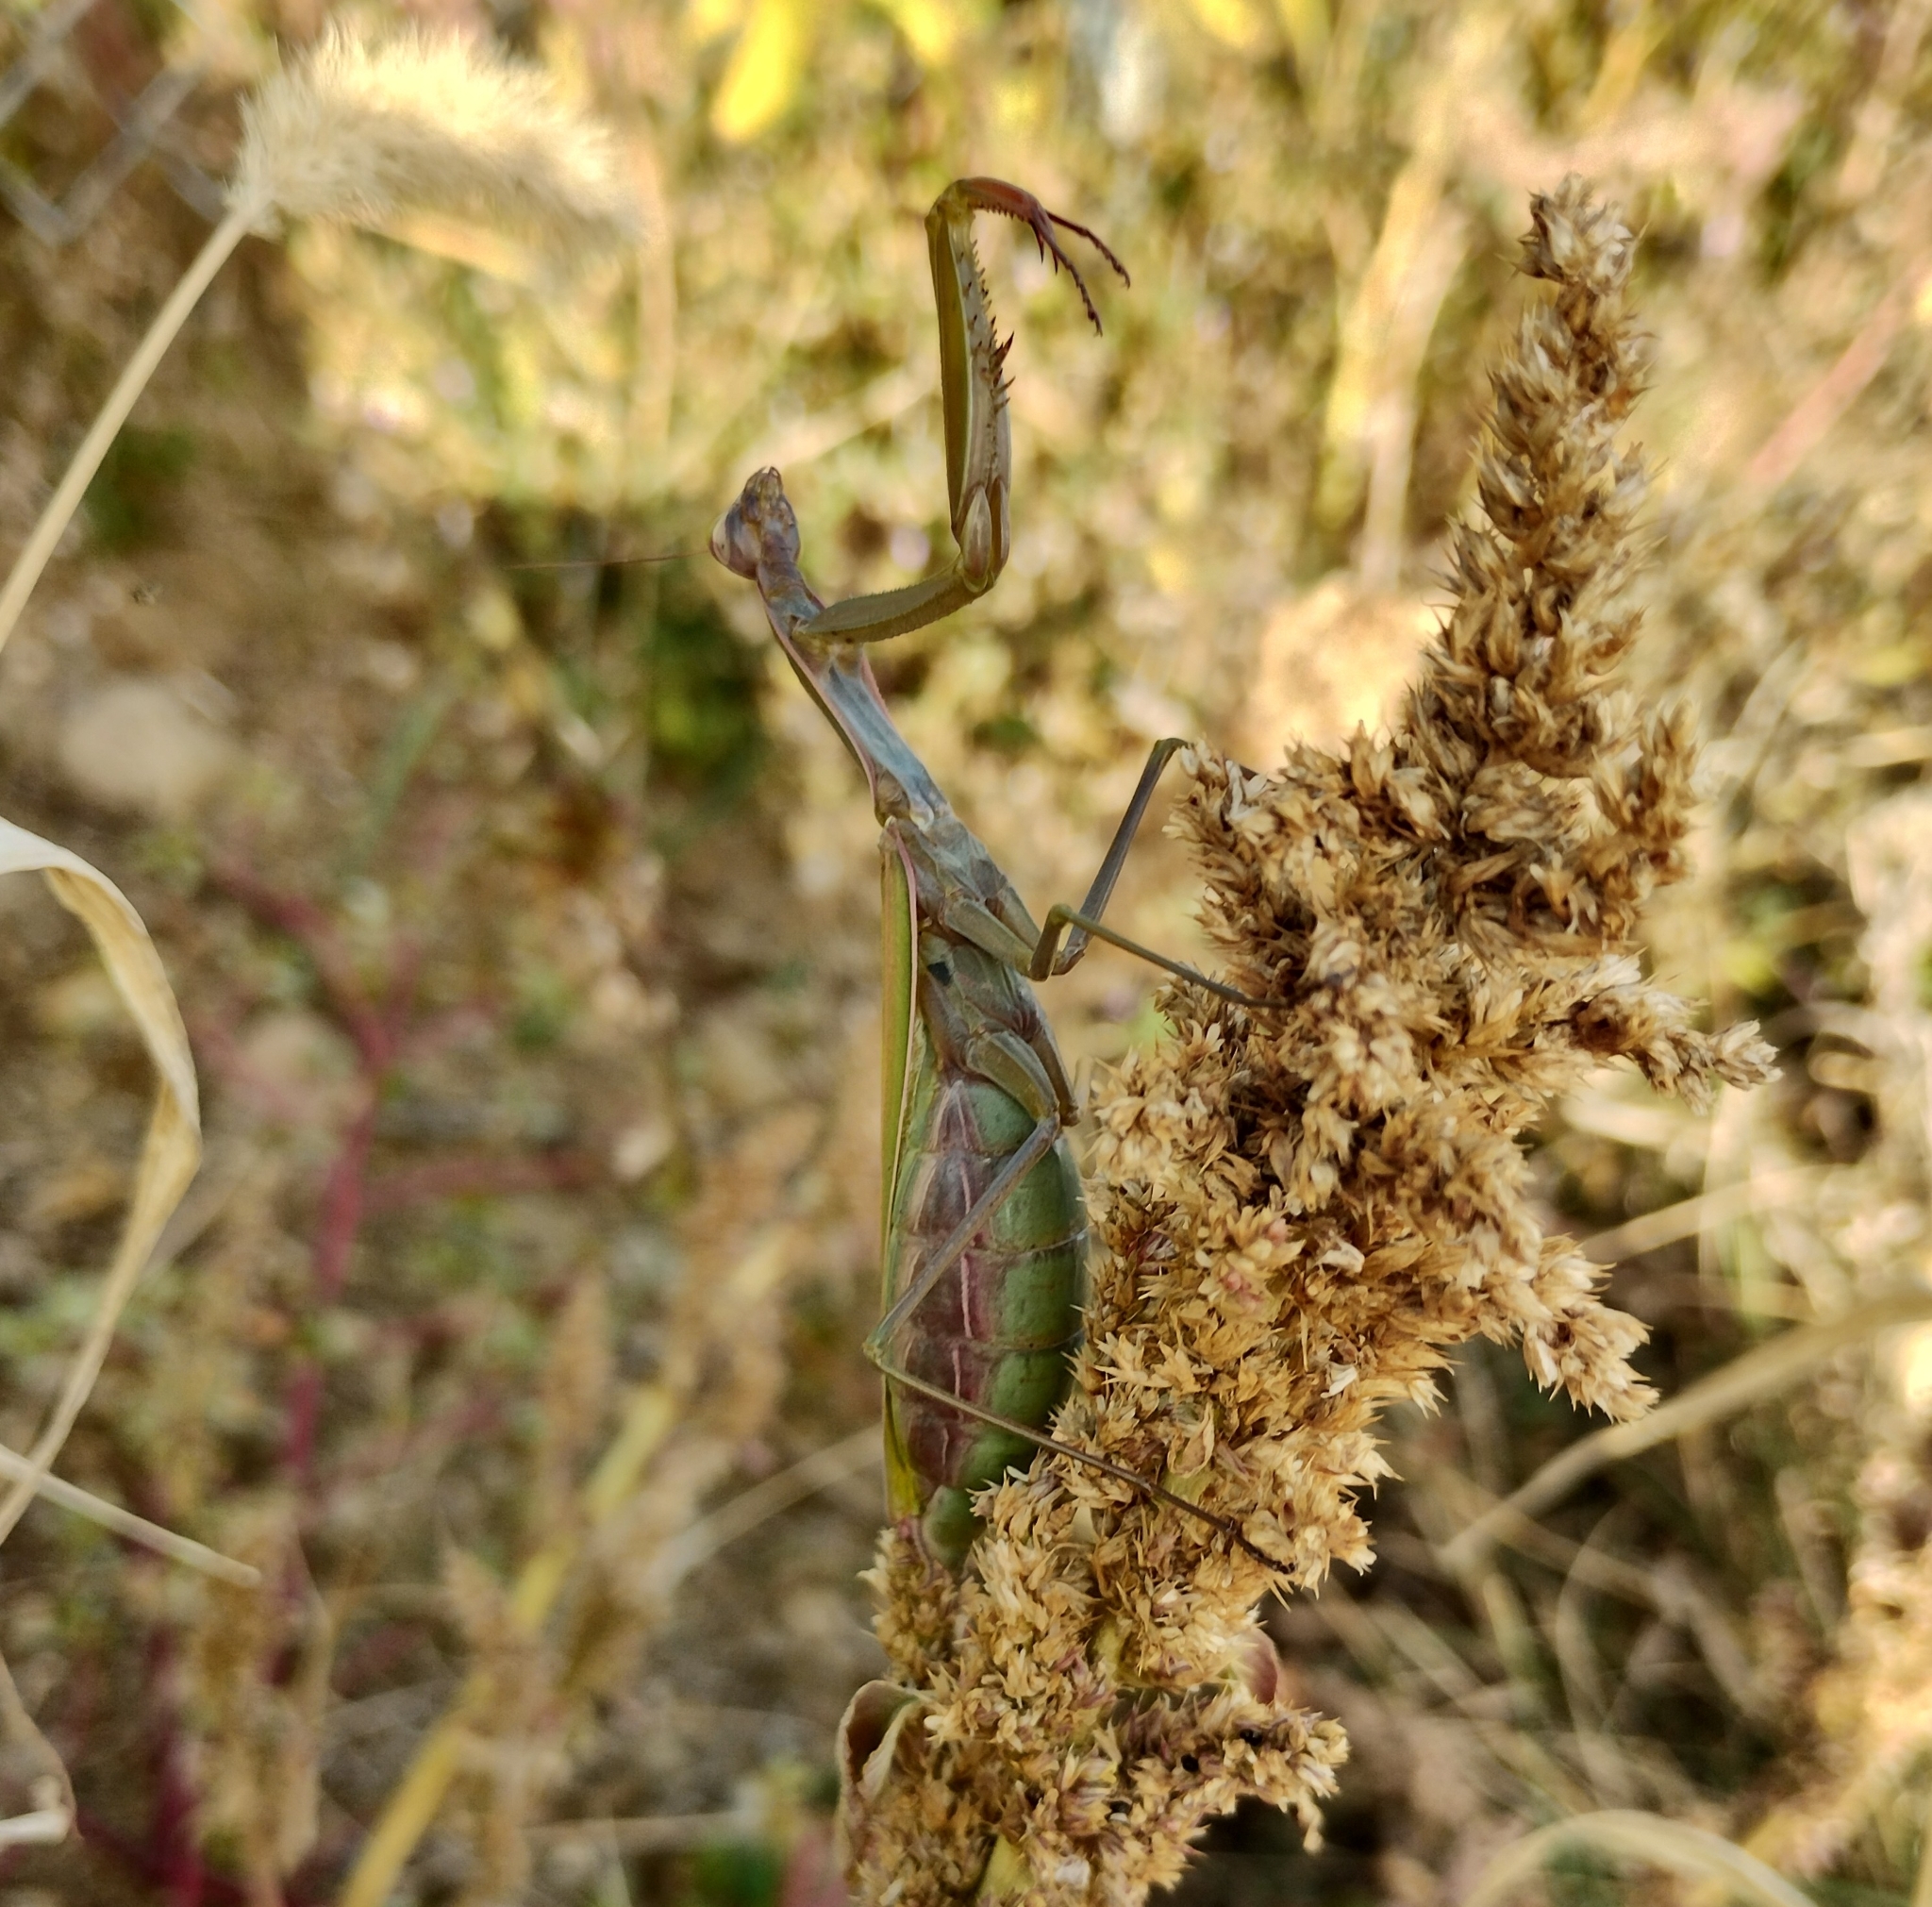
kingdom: Animalia
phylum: Arthropoda
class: Insecta
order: Mantodea
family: Mantidae
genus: Mantis
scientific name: Mantis religiosa
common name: Praying mantis
